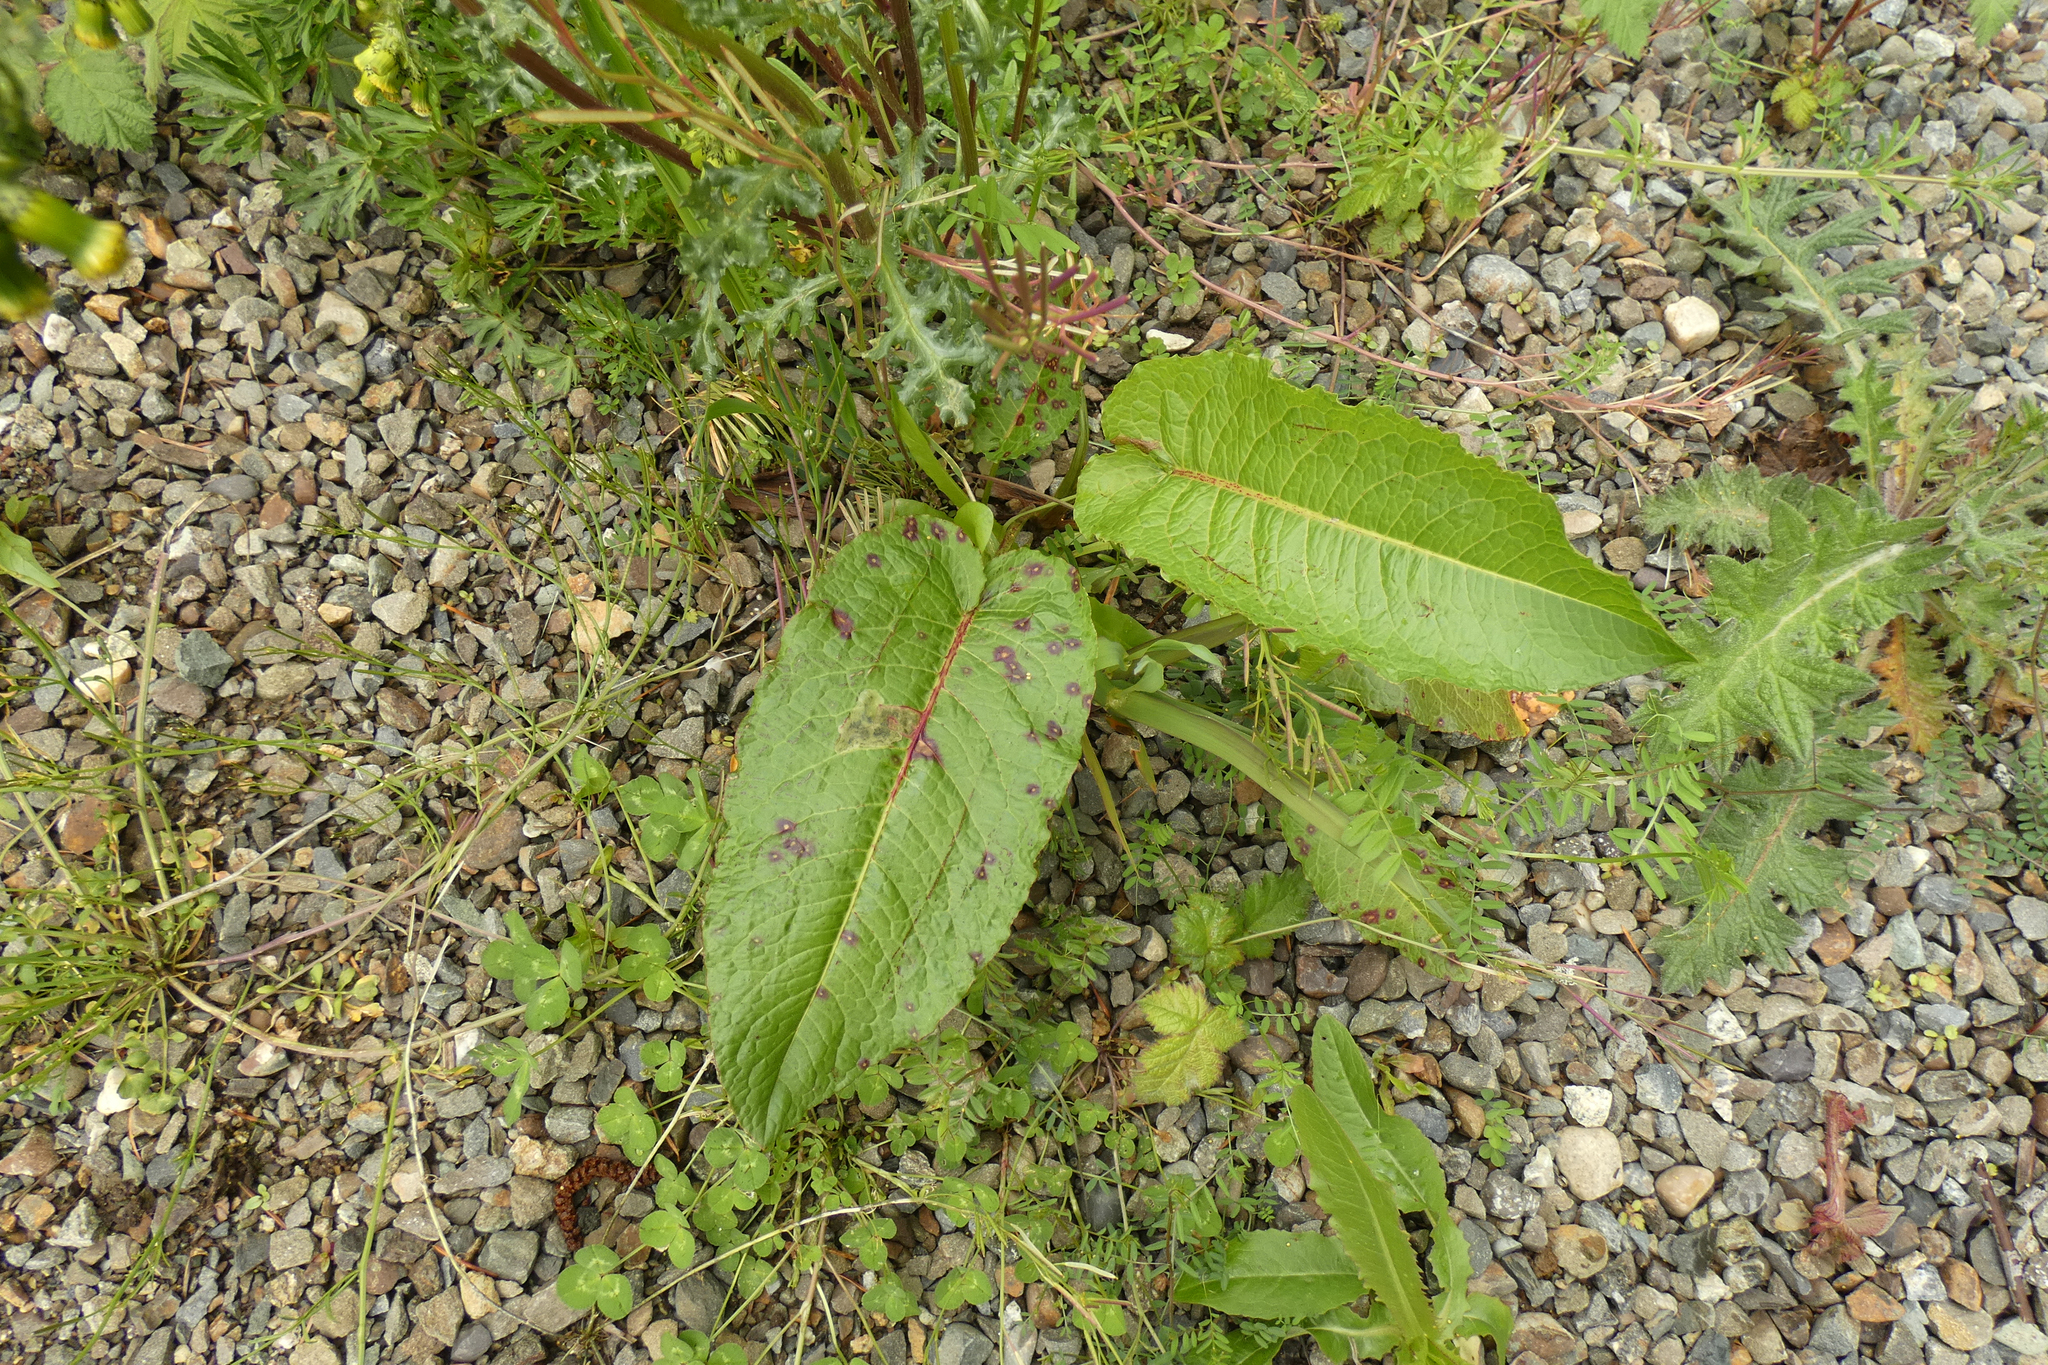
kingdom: Plantae
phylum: Tracheophyta
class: Magnoliopsida
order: Caryophyllales
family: Polygonaceae
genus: Rumex
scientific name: Rumex obtusifolius
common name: Bitter dock
